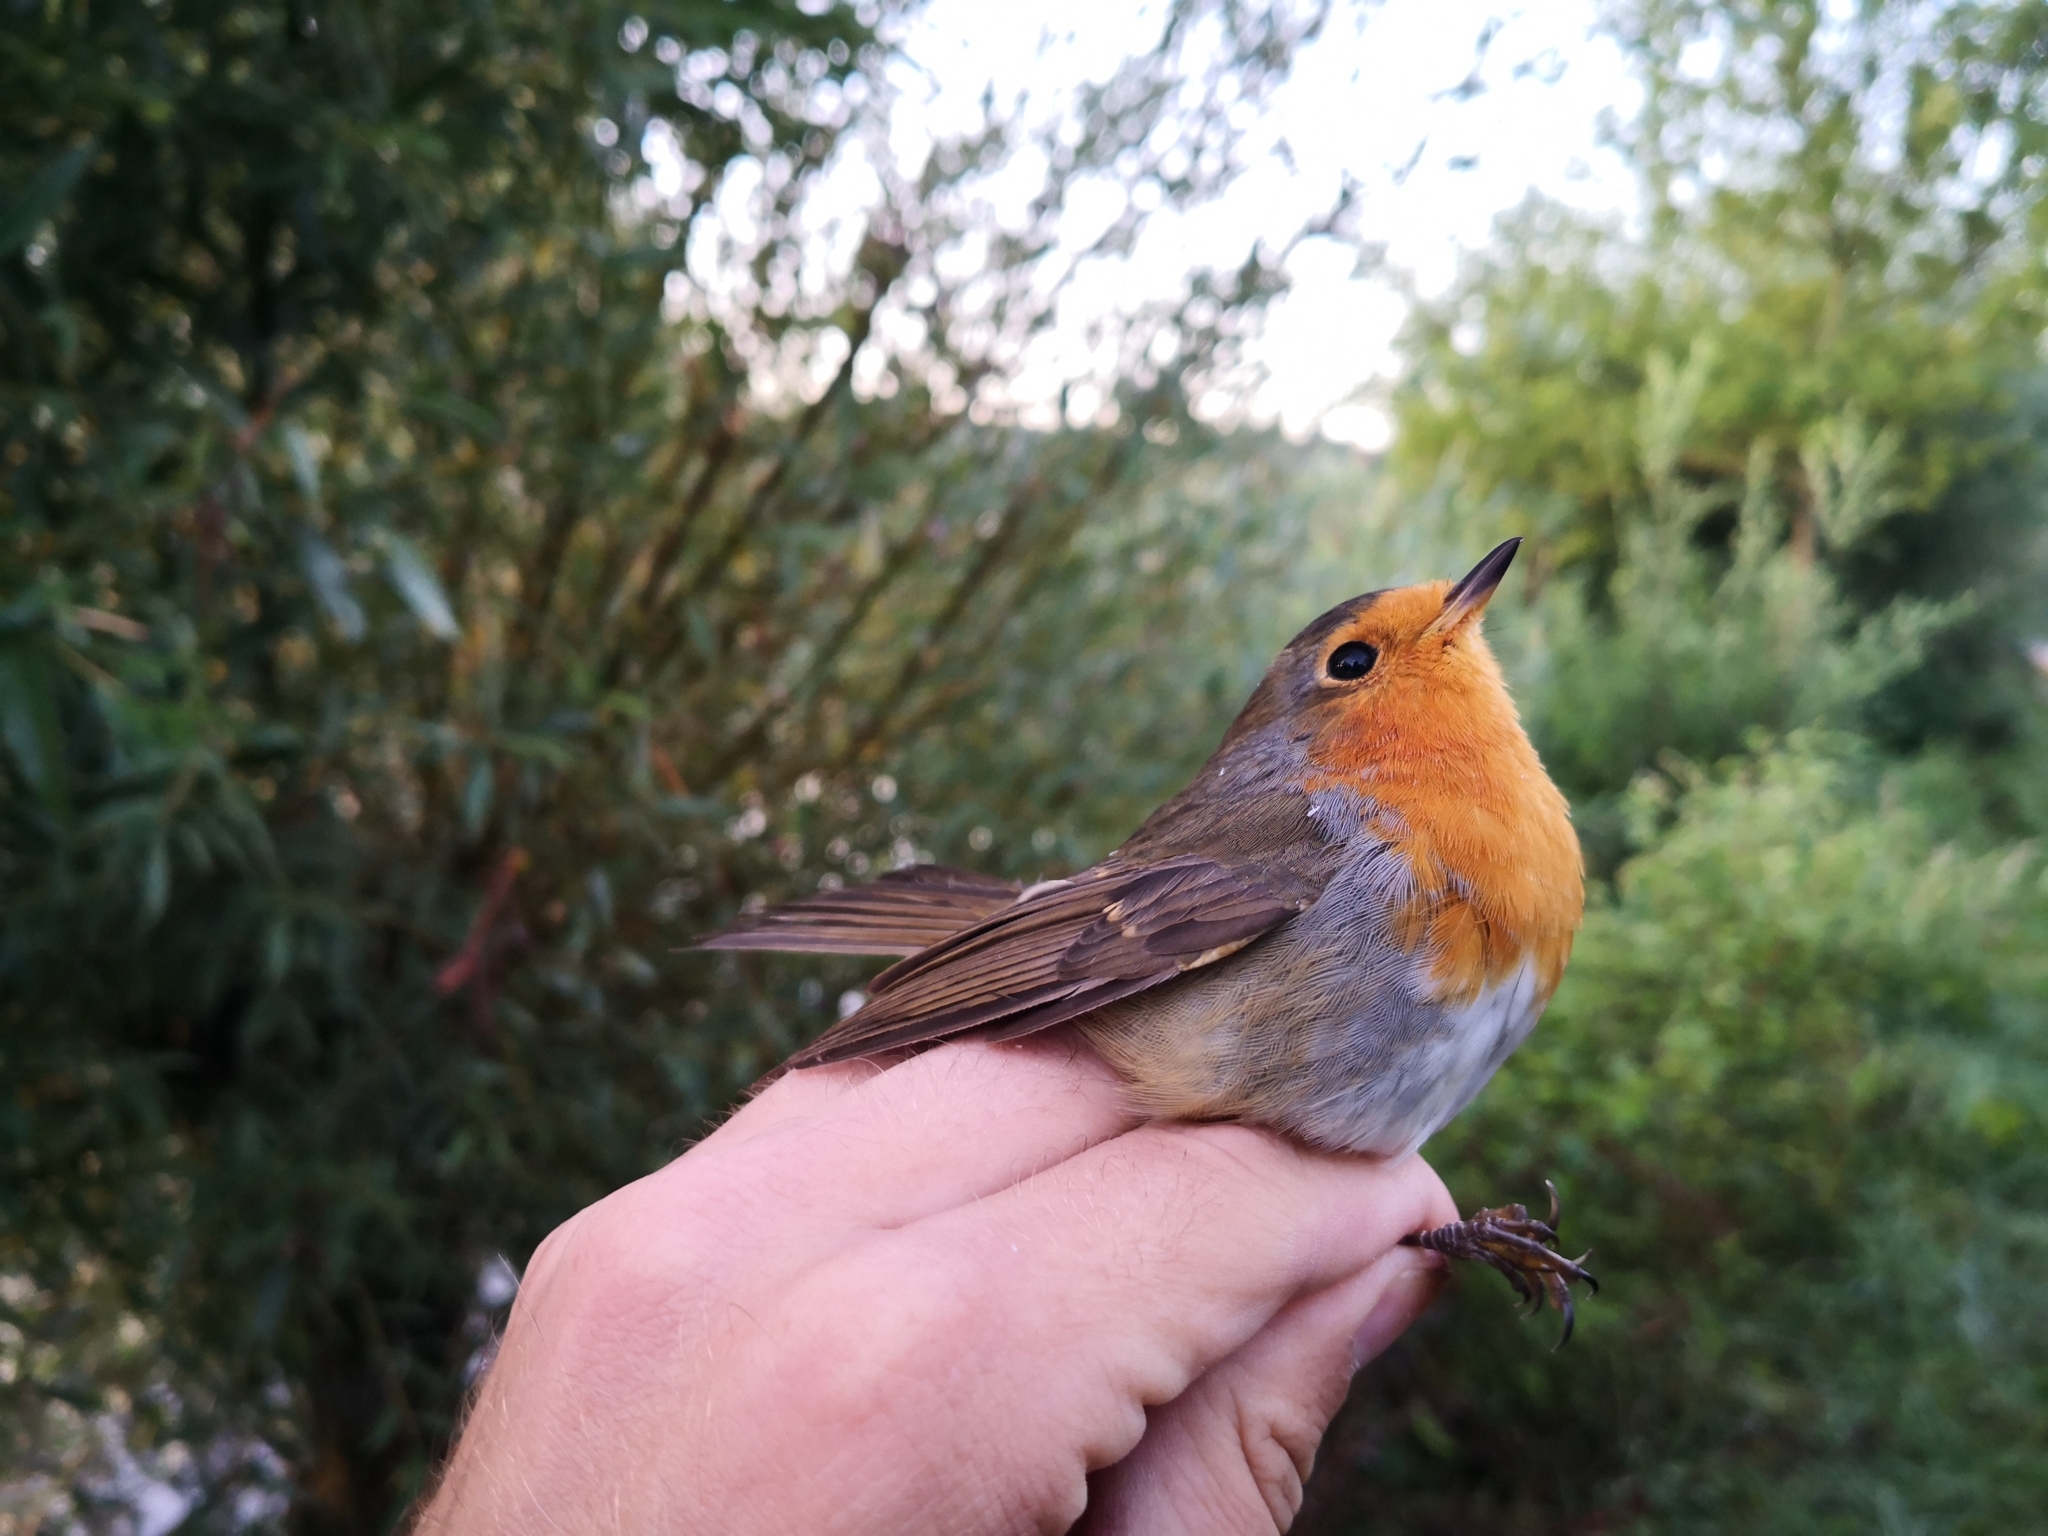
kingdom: Animalia
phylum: Chordata
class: Aves
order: Passeriformes
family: Muscicapidae
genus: Erithacus
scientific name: Erithacus rubecula
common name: European robin
